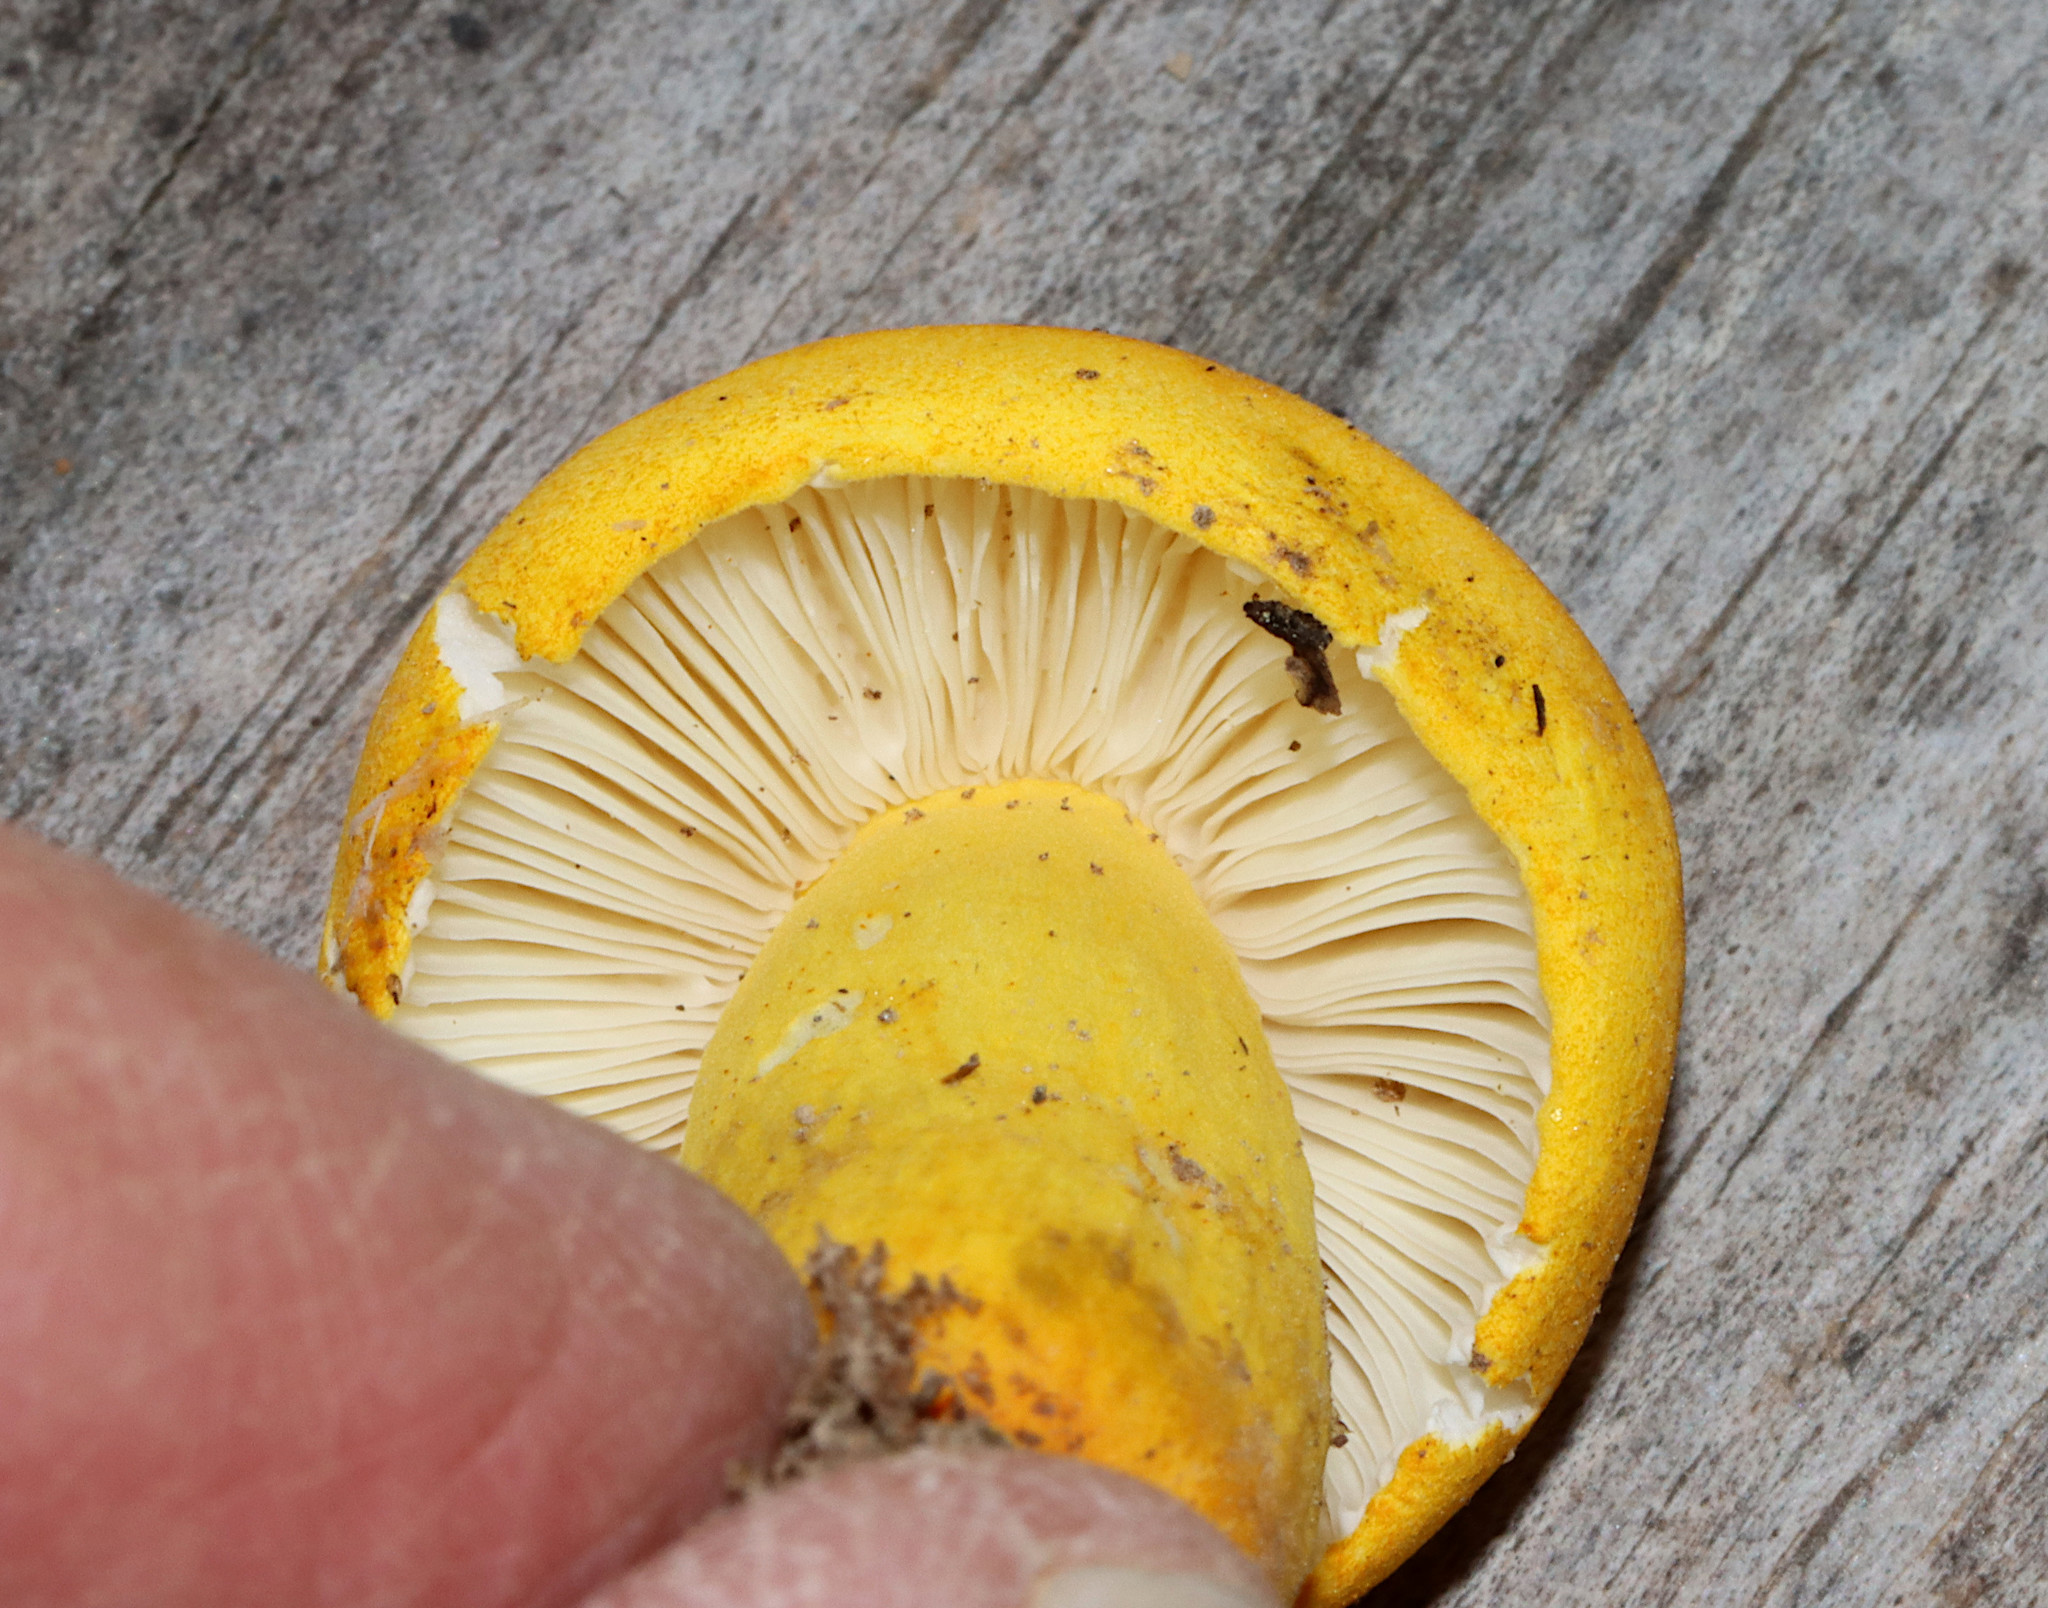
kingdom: Fungi
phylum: Basidiomycota
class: Agaricomycetes
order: Russulales
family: Russulaceae
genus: Russula
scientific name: Russula flavida
